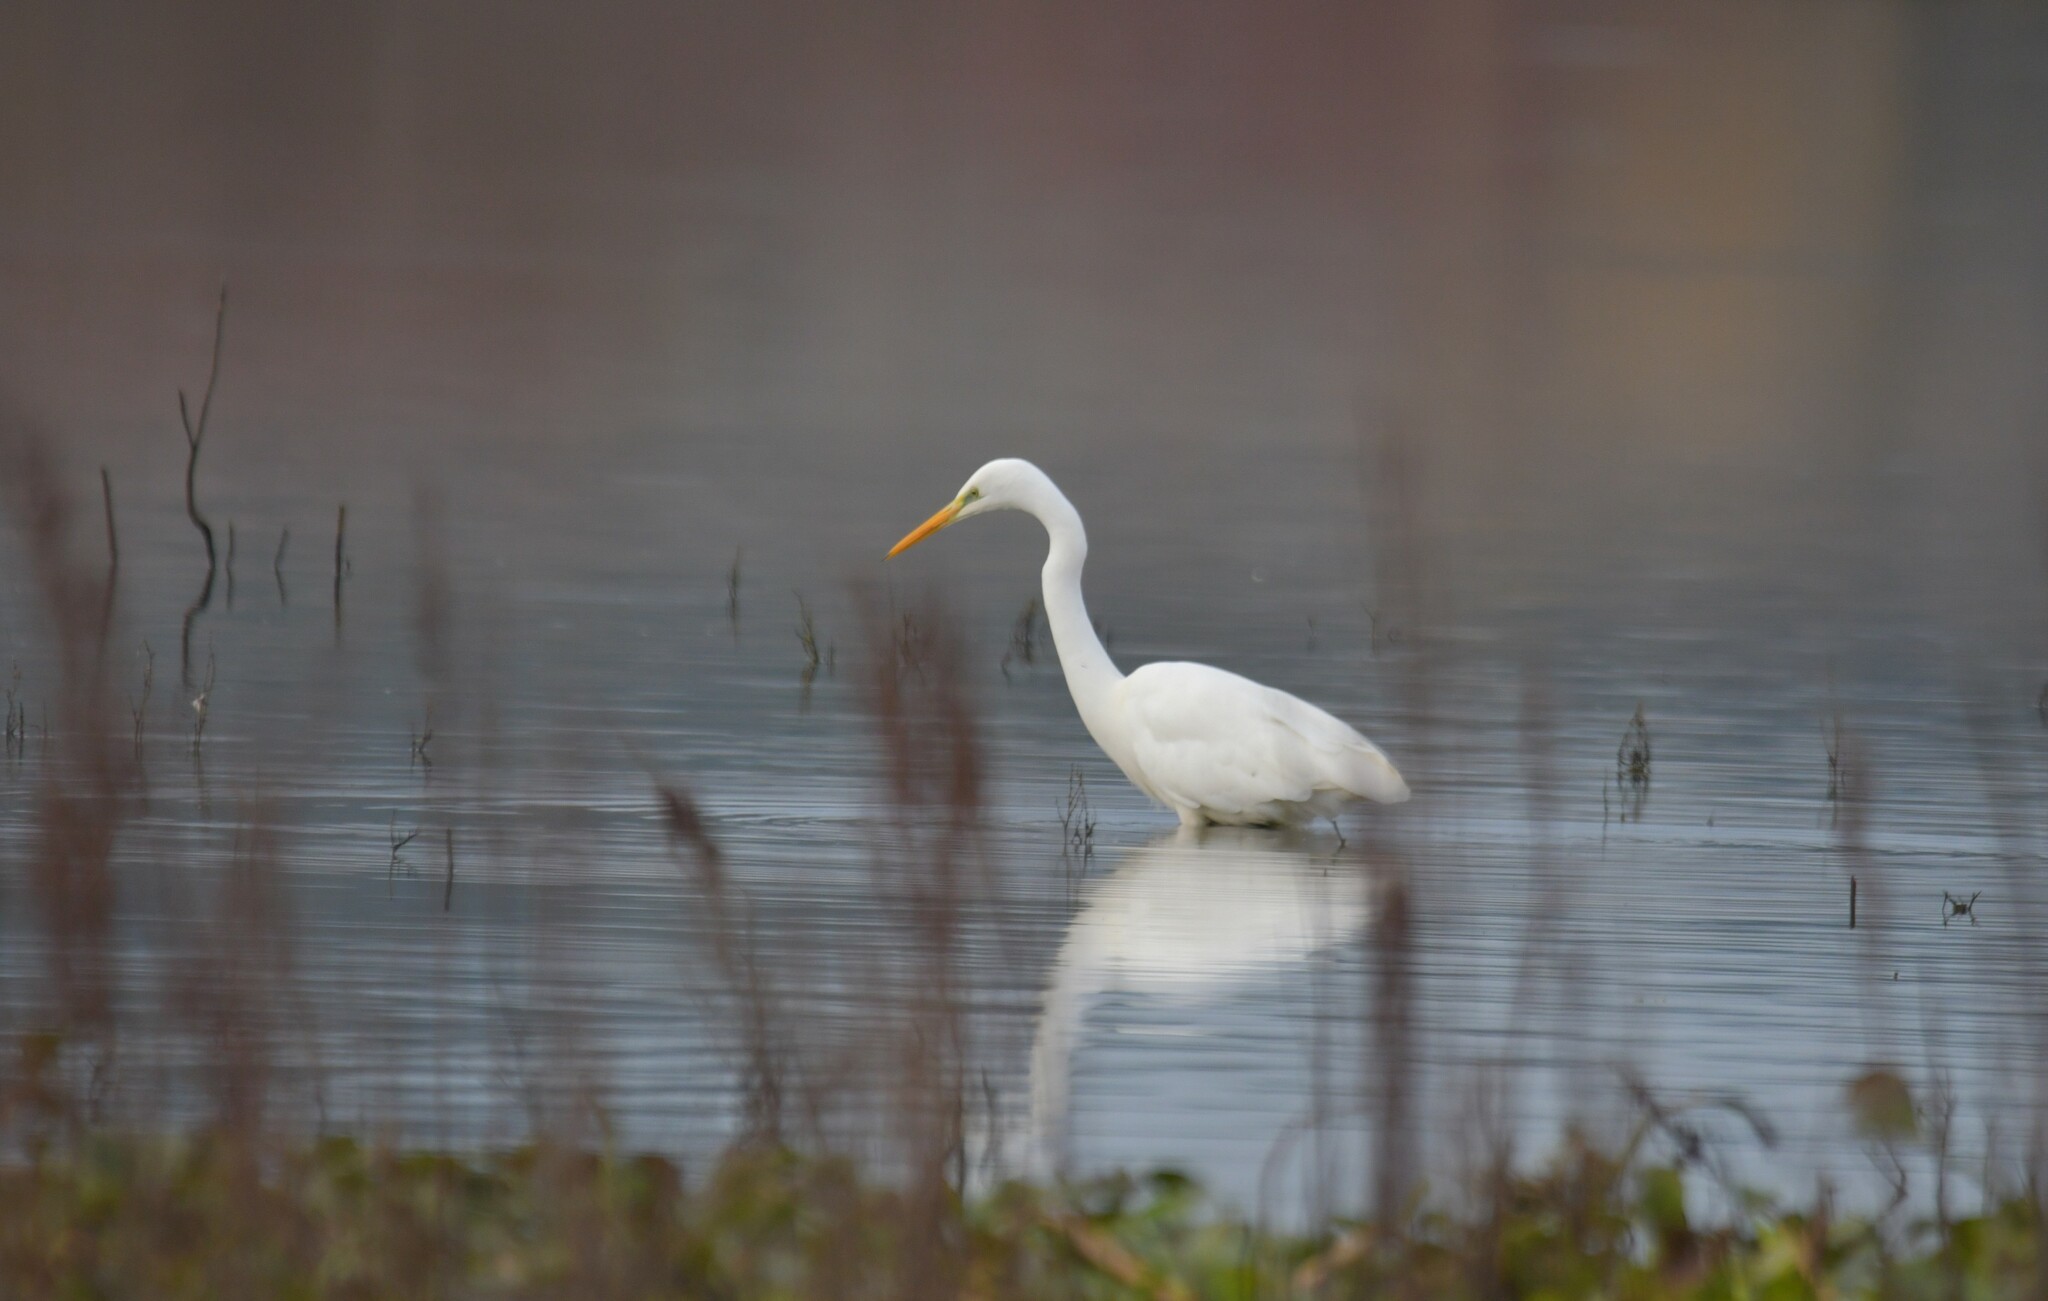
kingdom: Animalia
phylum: Chordata
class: Aves
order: Pelecaniformes
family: Ardeidae
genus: Ardea
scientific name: Ardea alba
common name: Great egret
